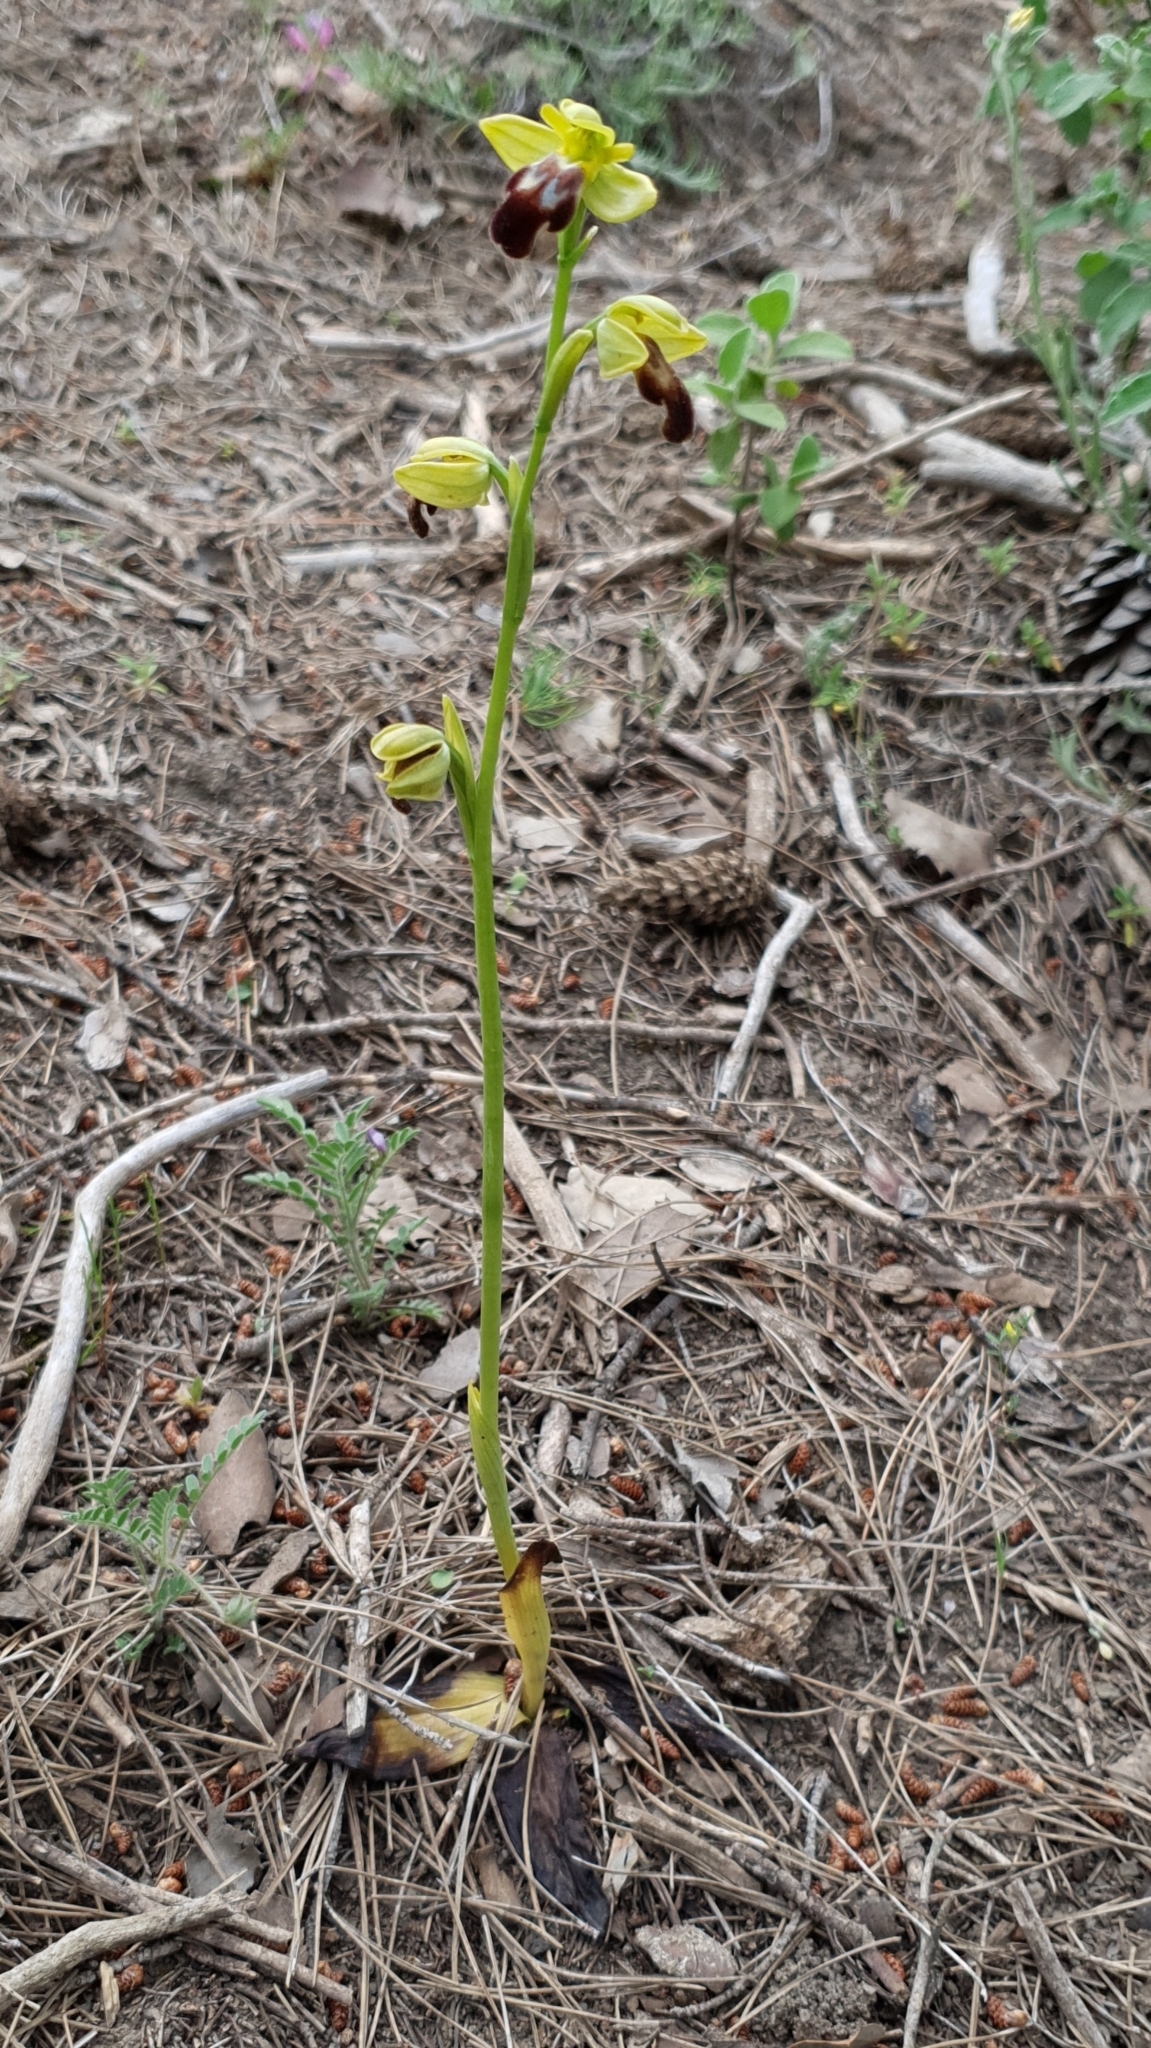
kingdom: Plantae
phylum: Tracheophyta
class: Liliopsida
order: Asparagales
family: Orchidaceae
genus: Ophrys
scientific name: Ophrys fusca
